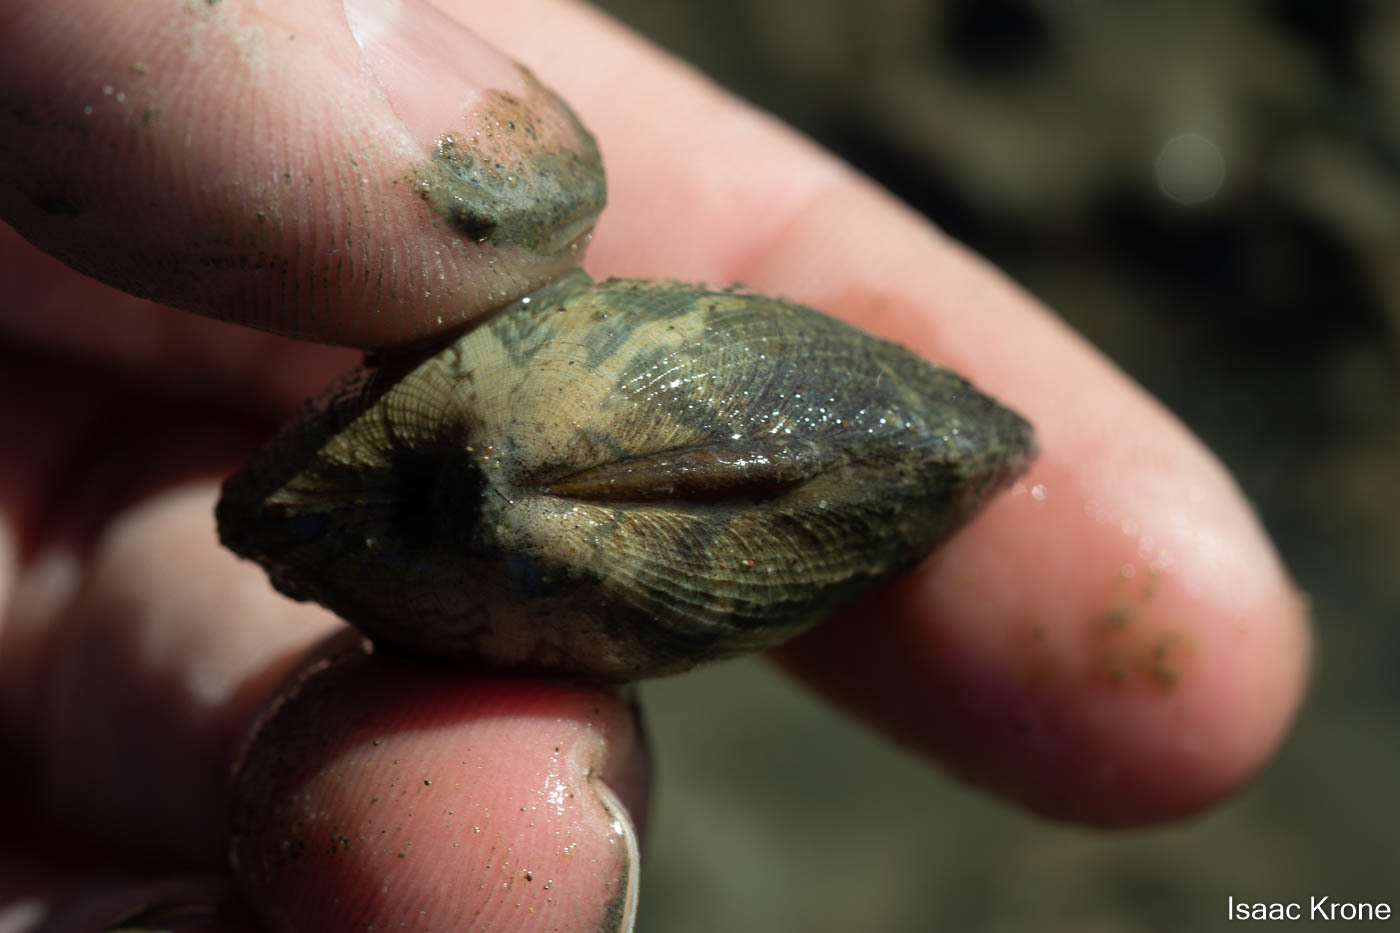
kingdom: Animalia
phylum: Mollusca
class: Bivalvia
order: Venerida
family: Veneridae
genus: Ruditapes
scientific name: Ruditapes philippinarum
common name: Manila clam
